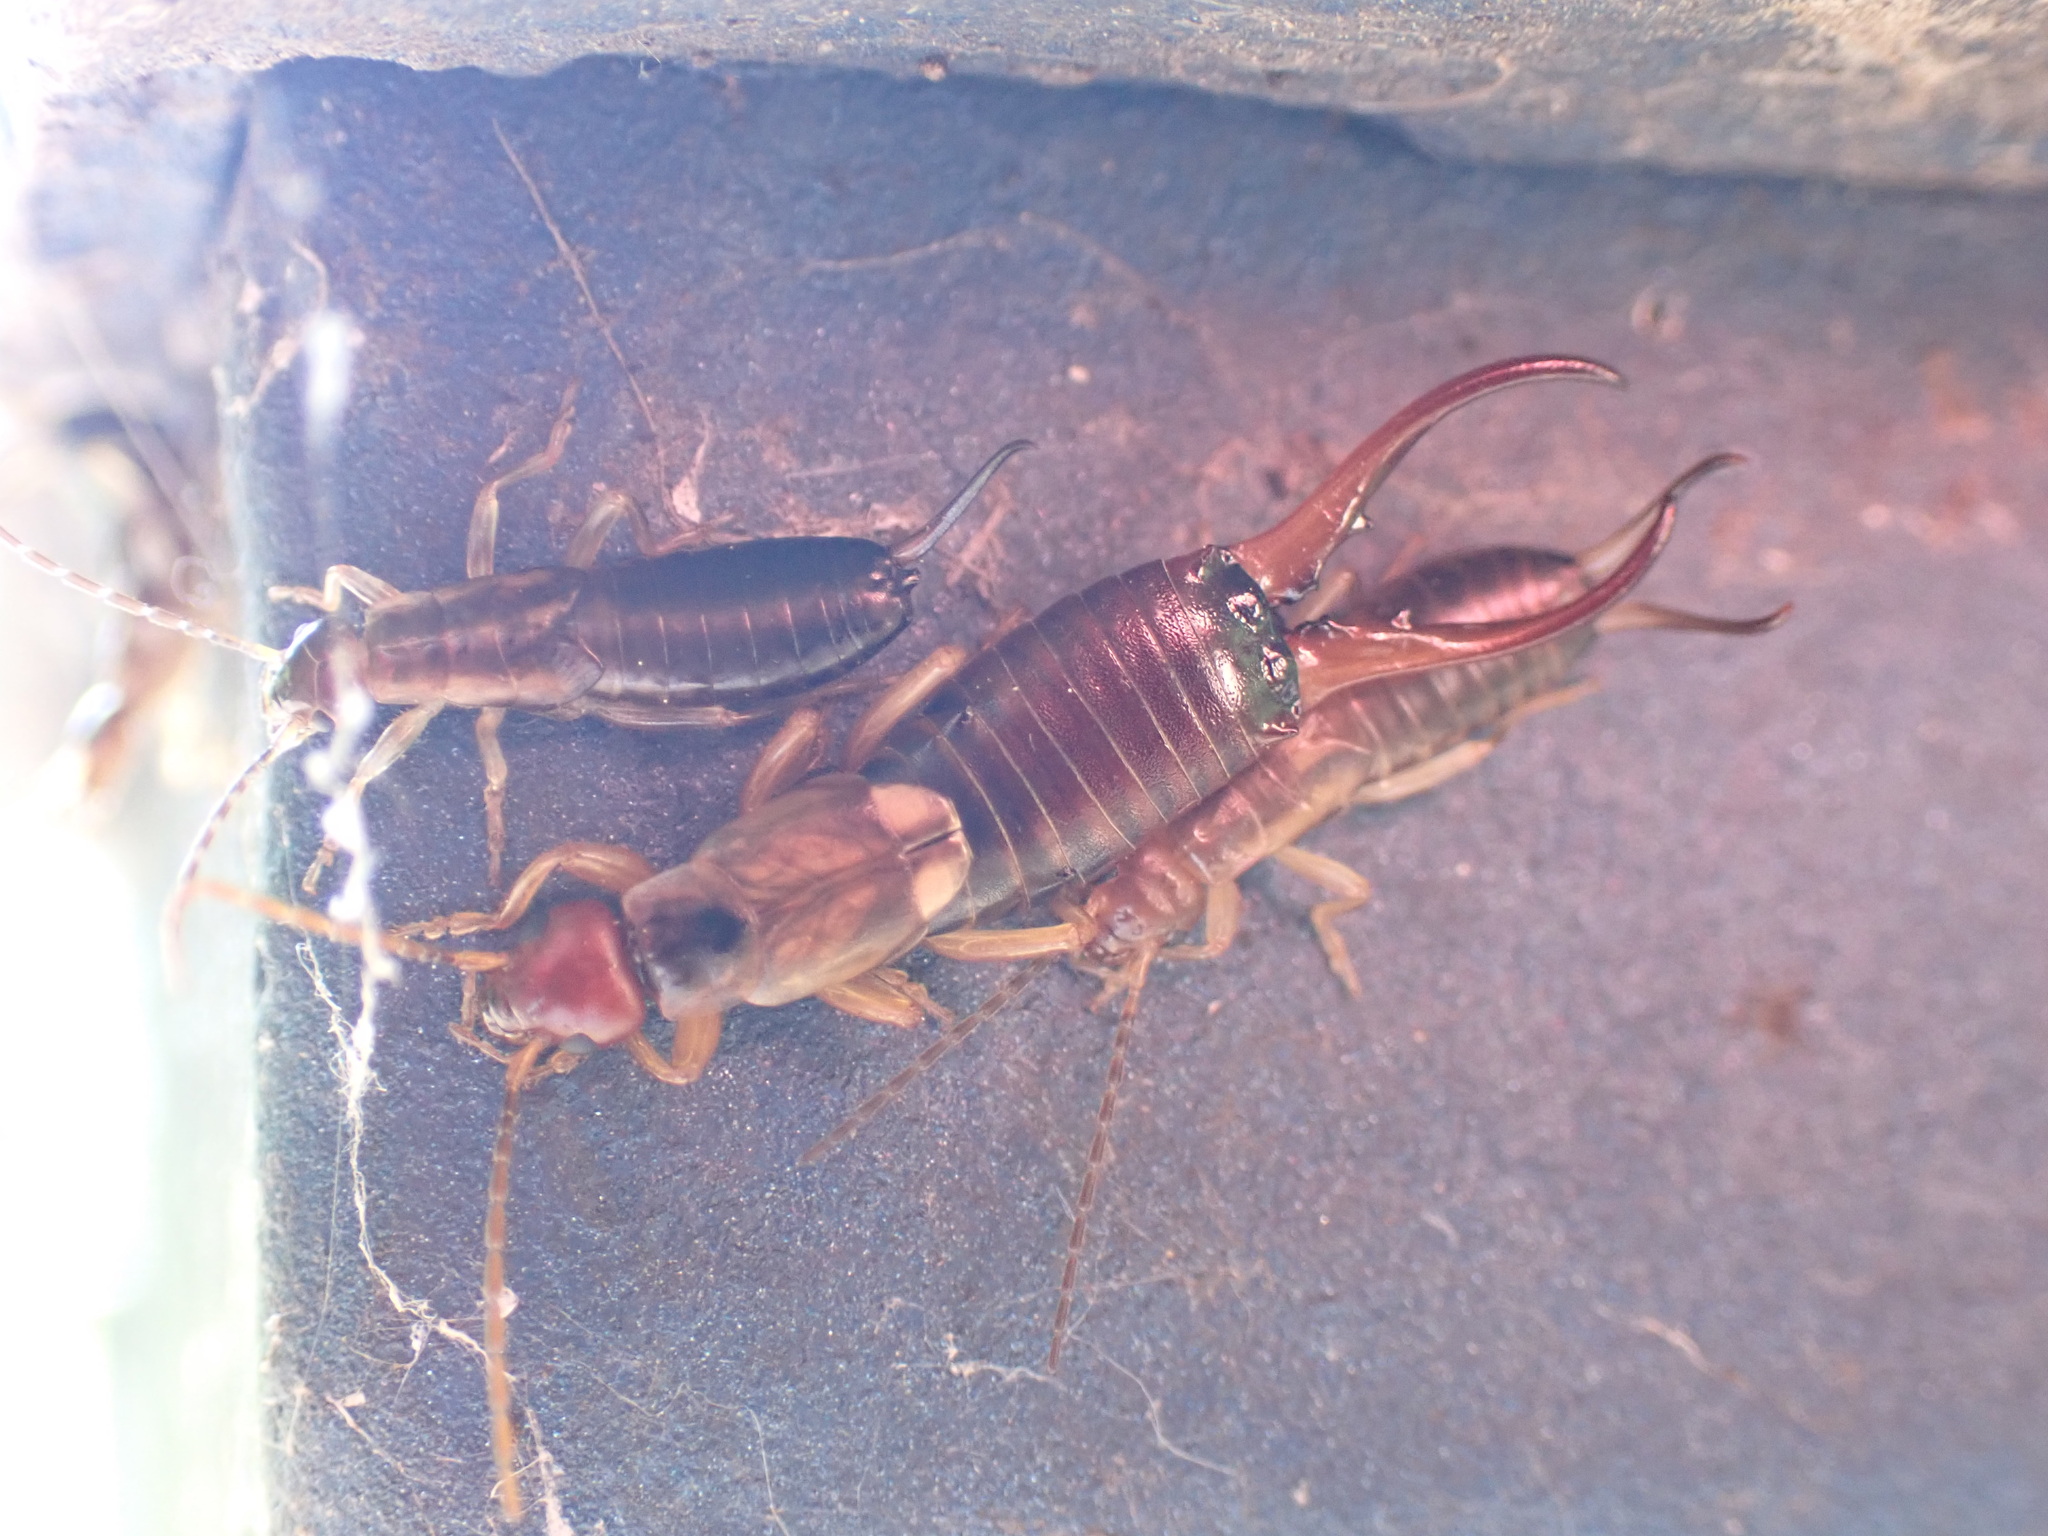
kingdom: Animalia
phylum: Arthropoda
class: Insecta
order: Dermaptera
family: Forficulidae
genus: Forficula
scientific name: Forficula
